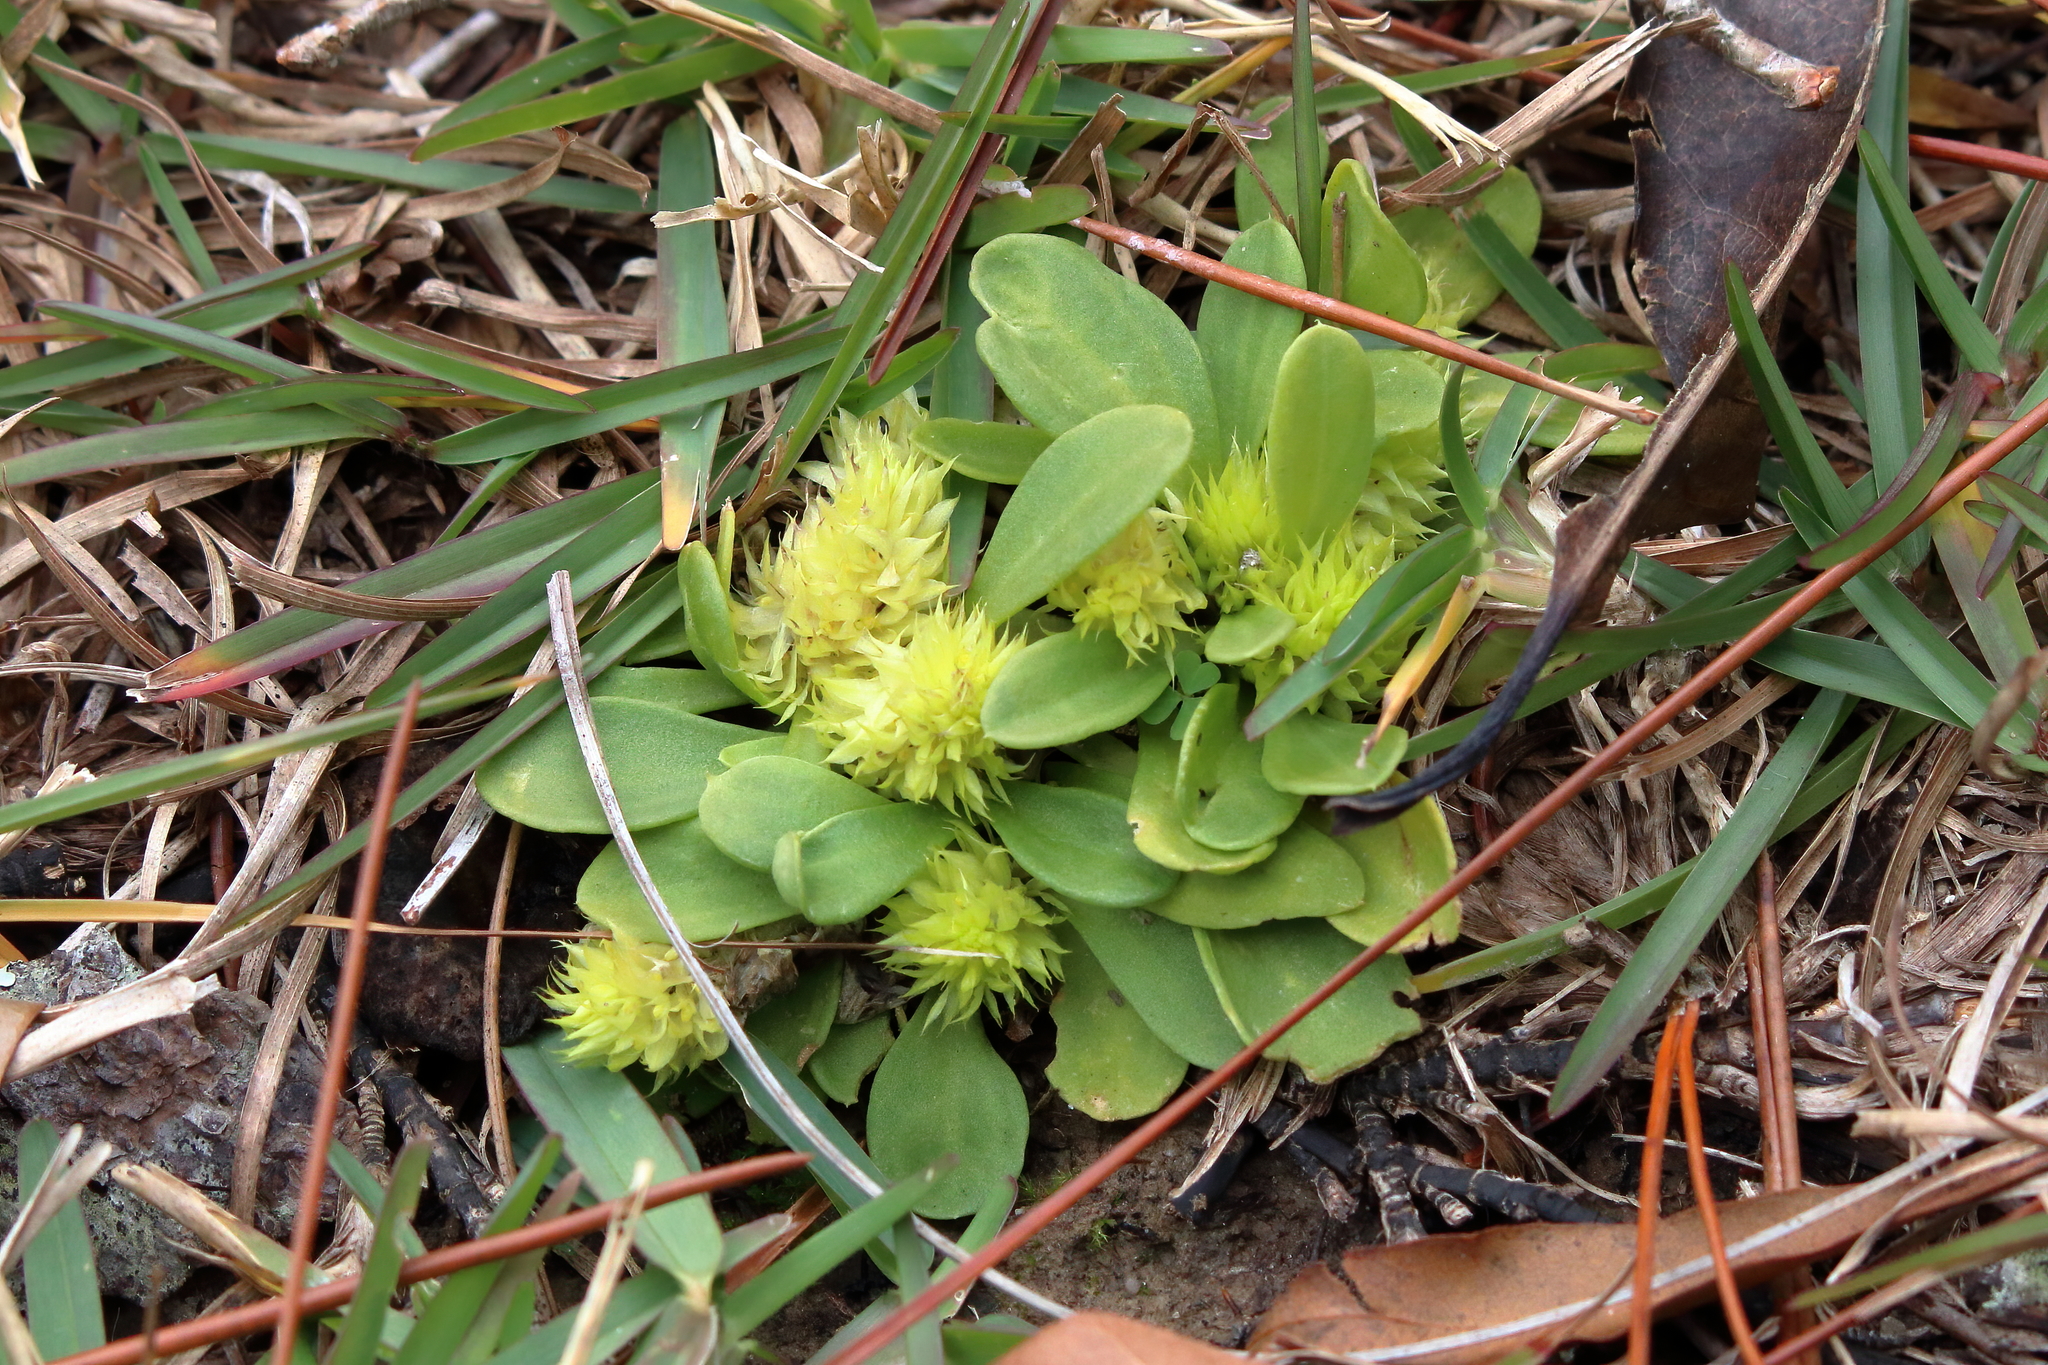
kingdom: Plantae
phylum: Tracheophyta
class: Magnoliopsida
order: Fabales
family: Polygalaceae
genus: Polygala
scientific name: Polygala nana
